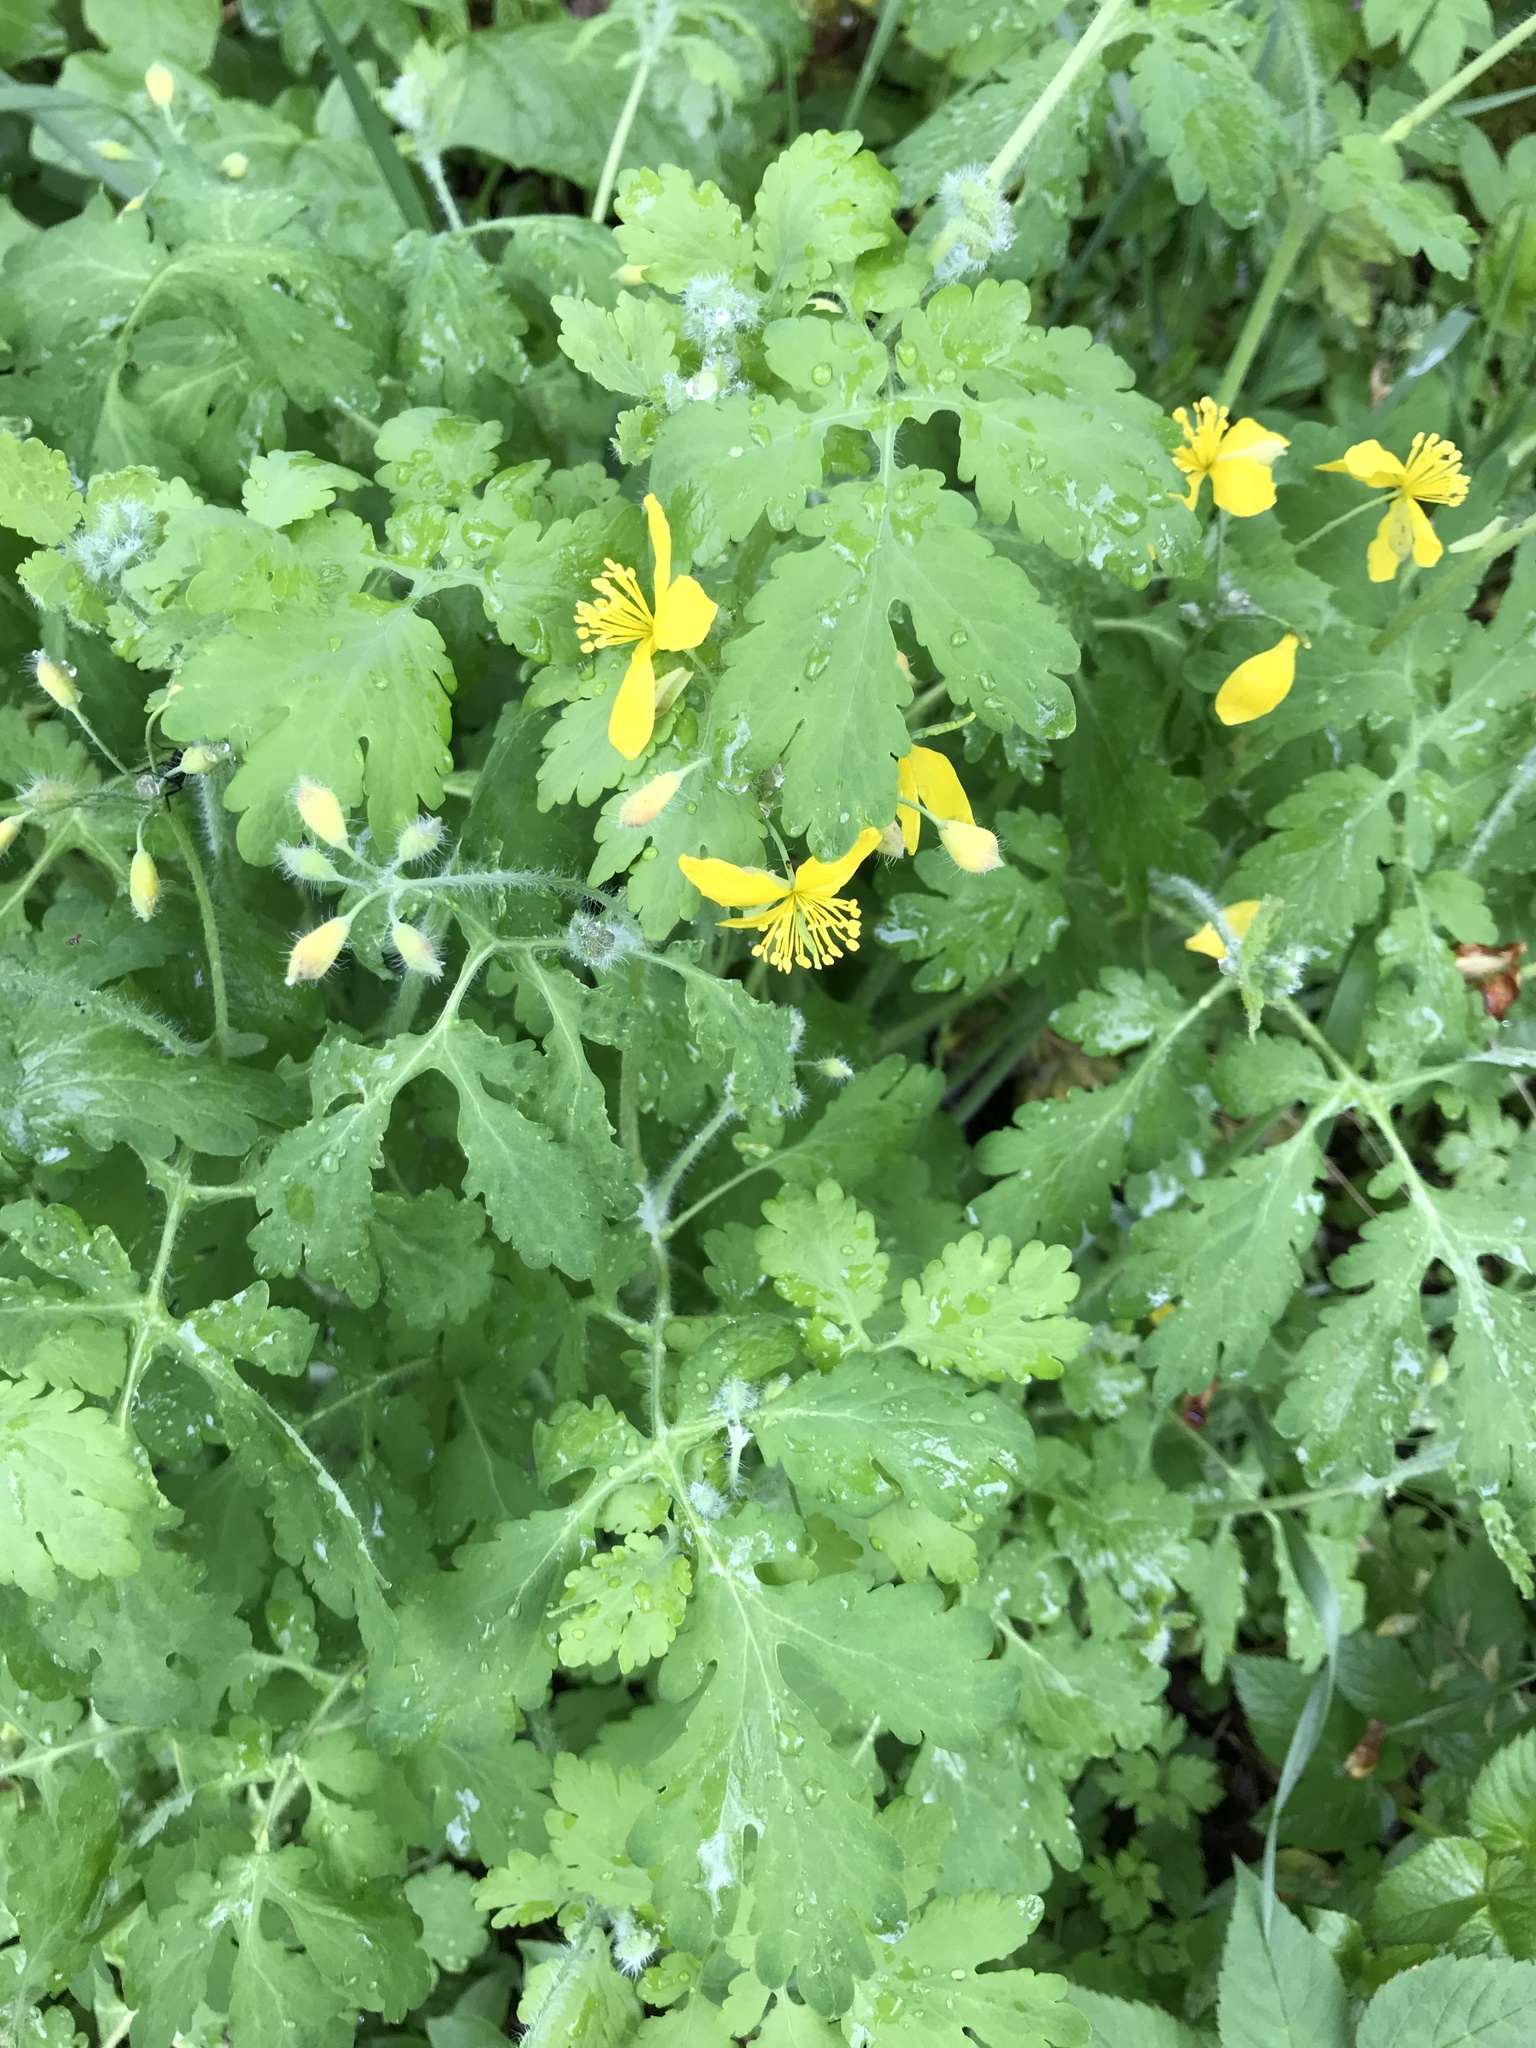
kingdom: Plantae
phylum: Tracheophyta
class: Magnoliopsida
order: Ranunculales
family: Papaveraceae
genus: Chelidonium
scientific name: Chelidonium majus
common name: Greater celandine
